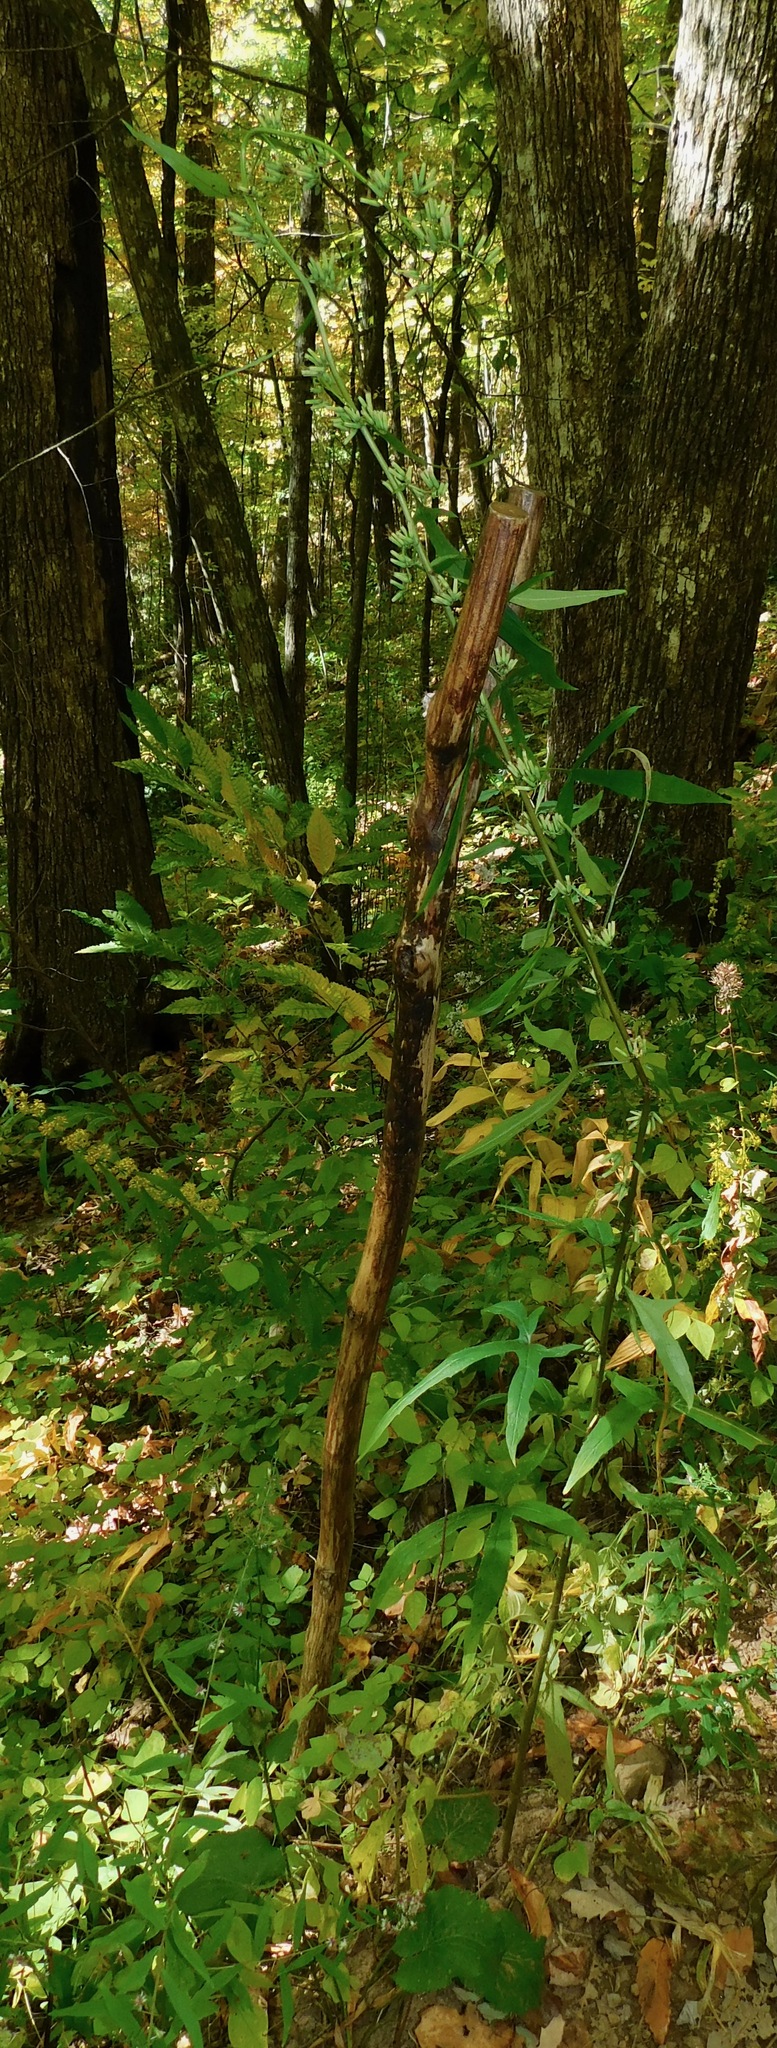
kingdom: Plantae
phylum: Tracheophyta
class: Magnoliopsida
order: Asterales
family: Asteraceae
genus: Nabalus
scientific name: Nabalus altissima
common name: Tall rattlesnakeroot
